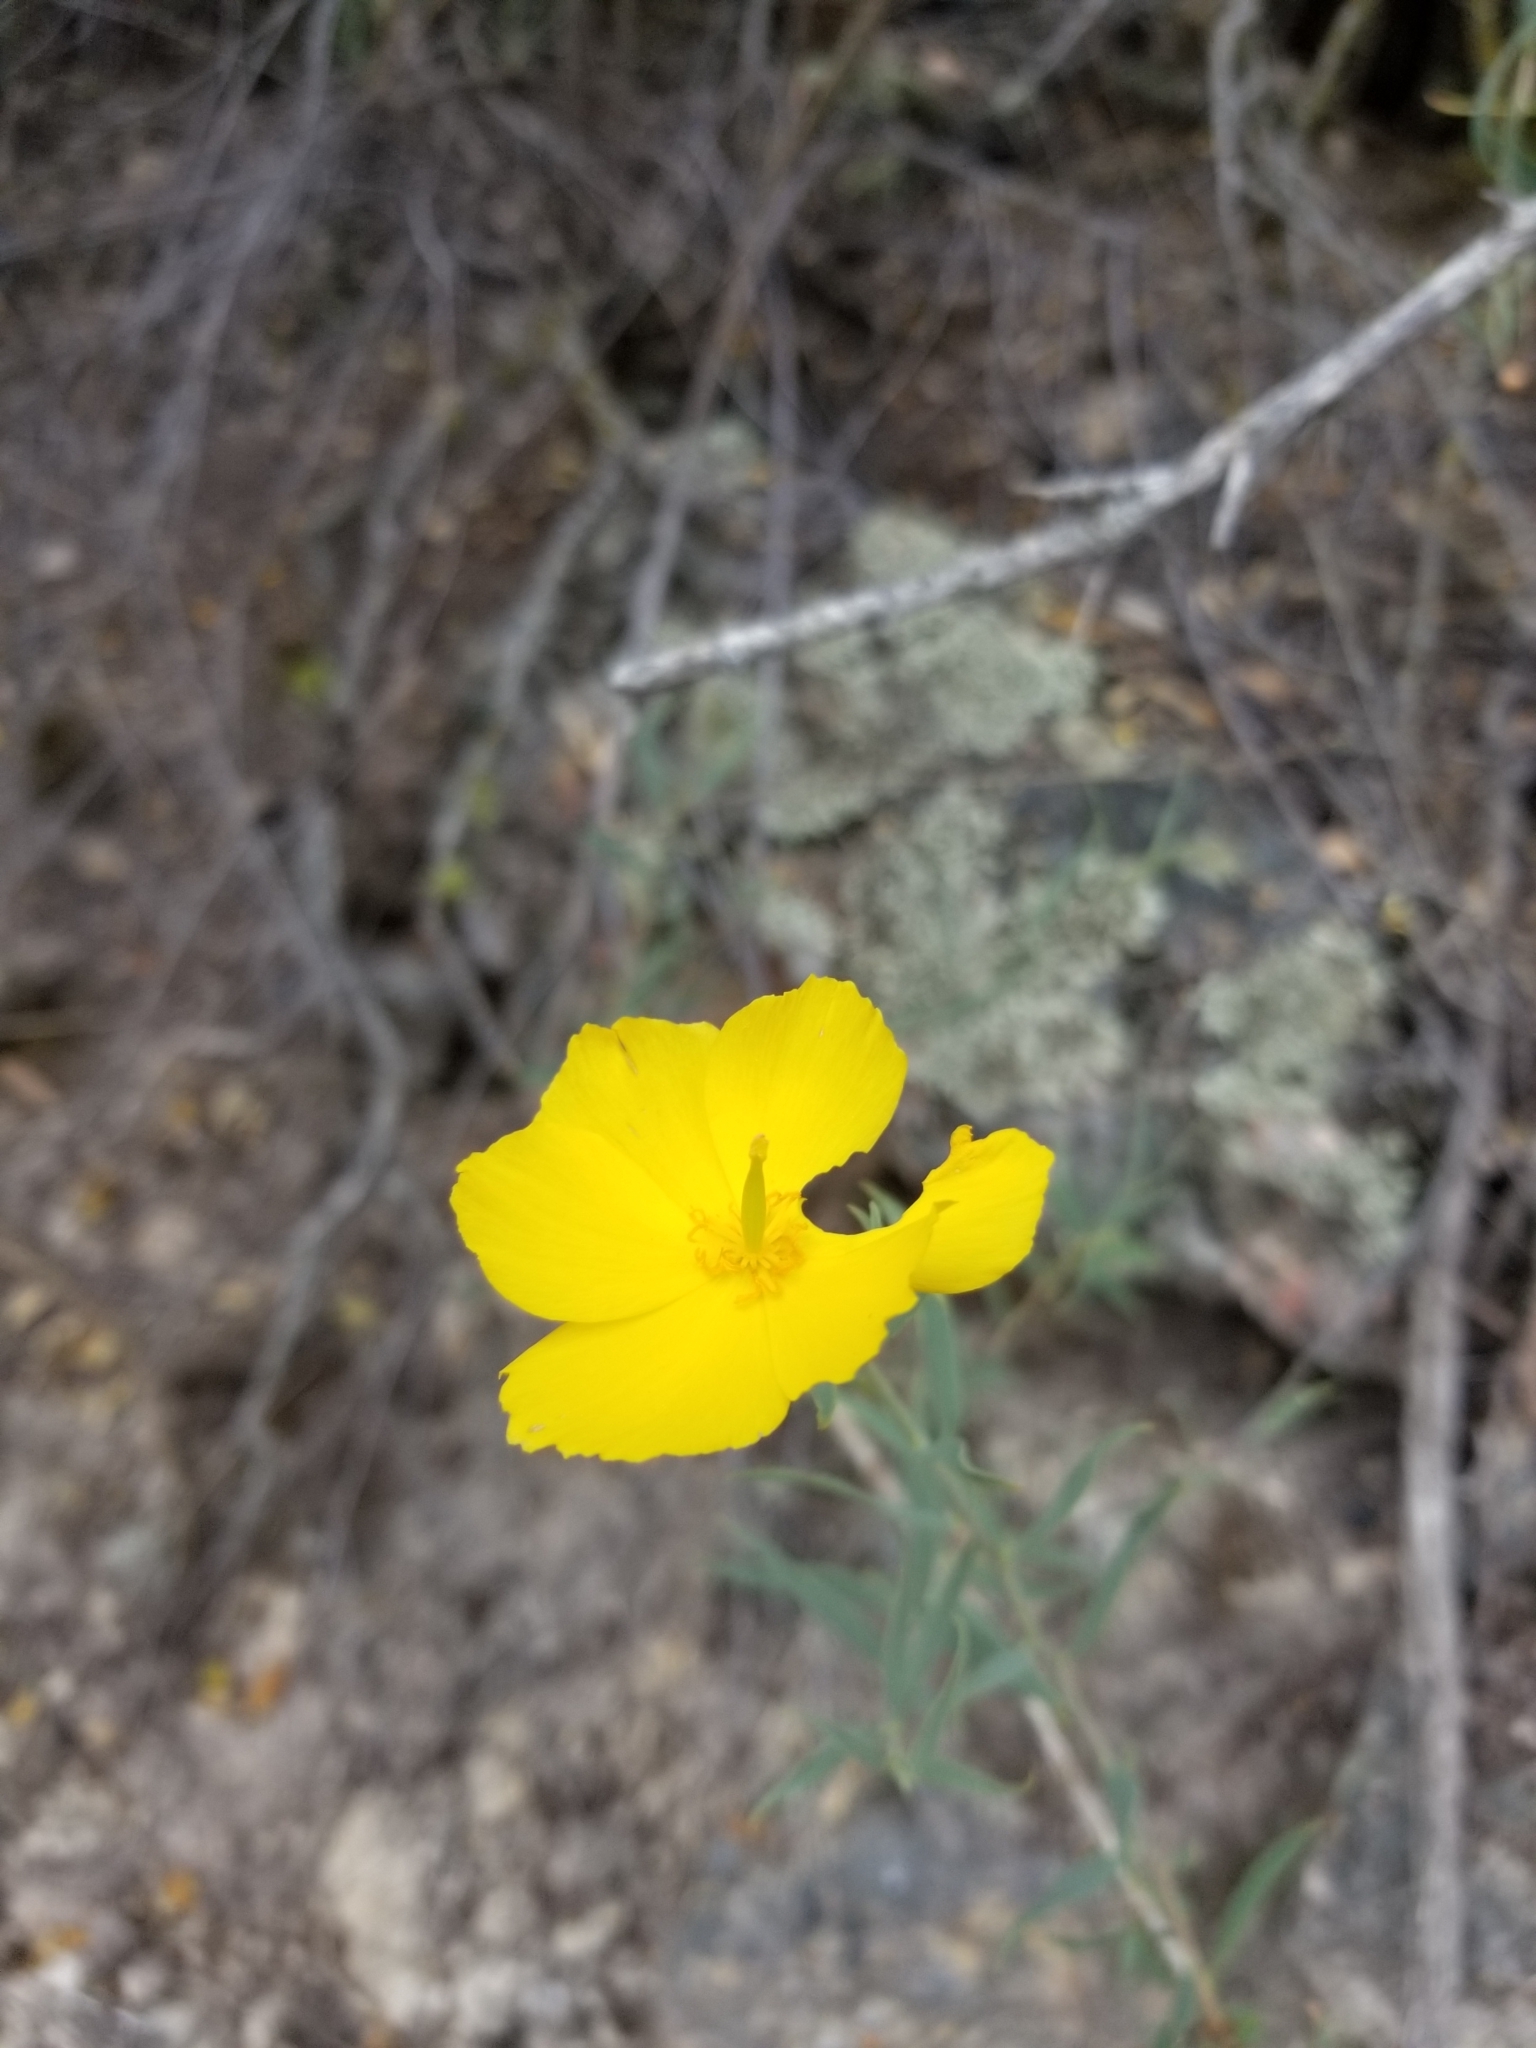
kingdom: Plantae
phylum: Tracheophyta
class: Magnoliopsida
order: Ranunculales
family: Papaveraceae
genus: Dendromecon
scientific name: Dendromecon rigida
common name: Tree poppy
